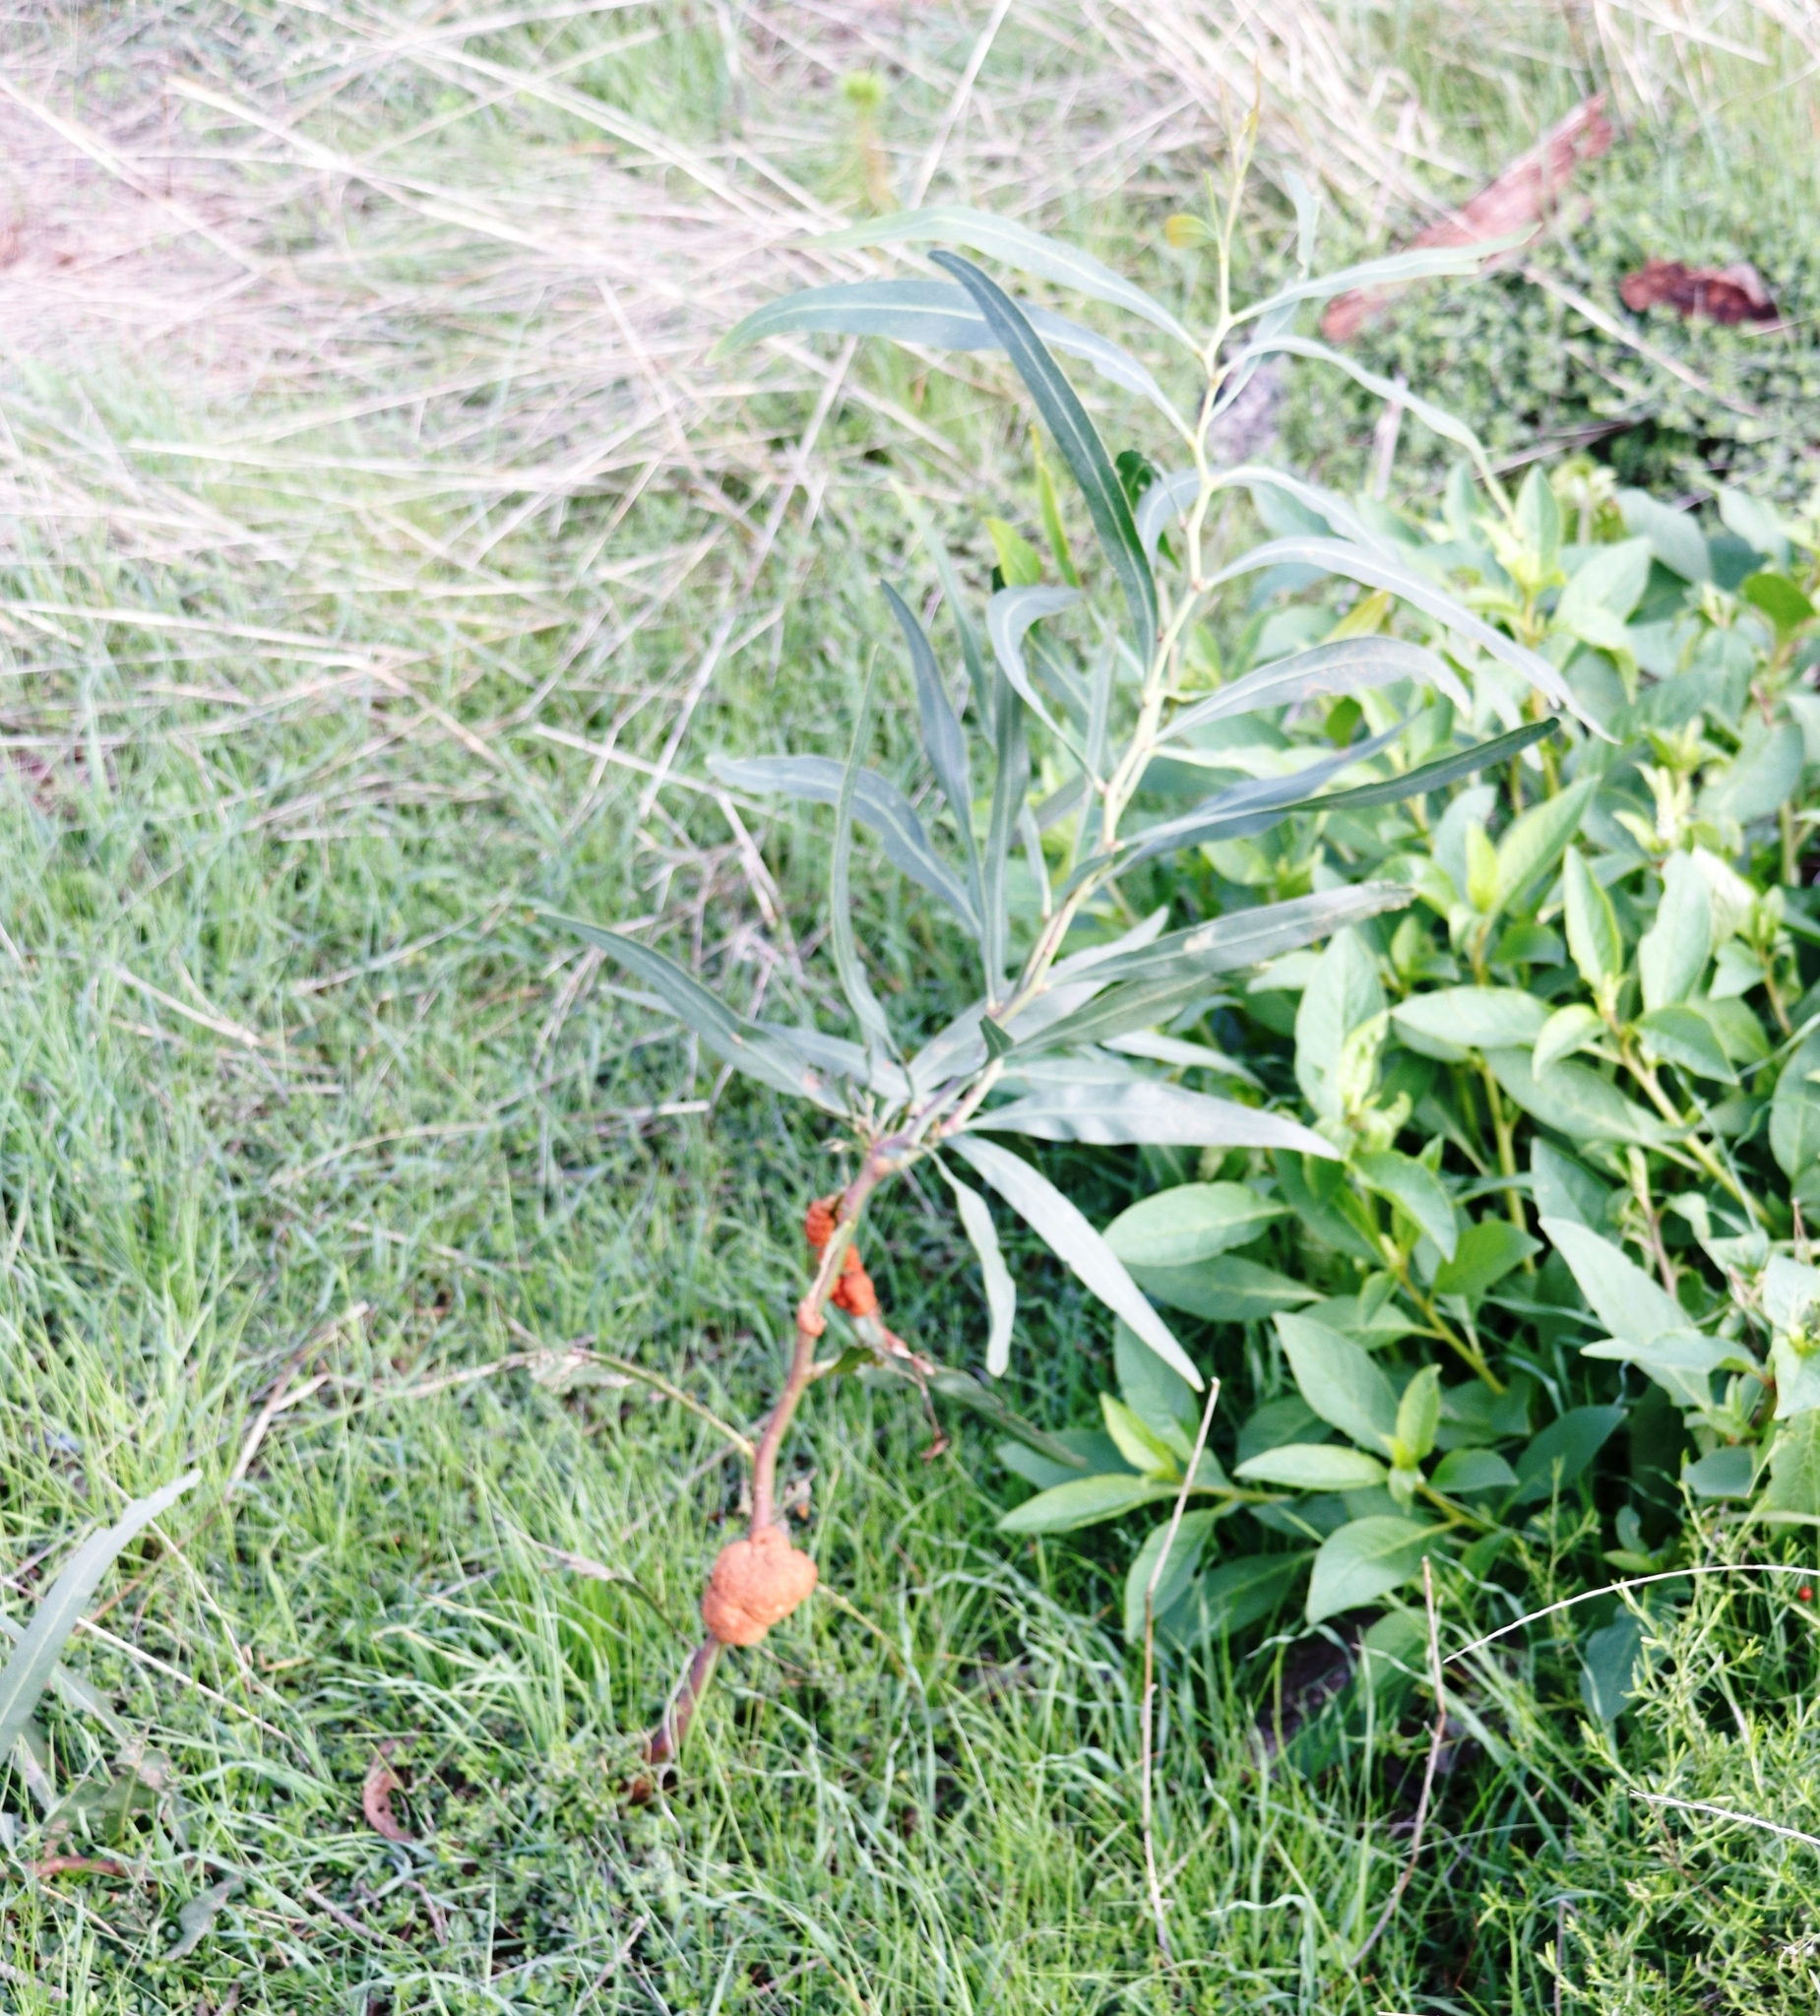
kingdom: Fungi
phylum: Basidiomycota
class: Pucciniomycetes
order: Pucciniales
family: Uromycladiaceae
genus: Uromycladium
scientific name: Uromycladium morrisii
